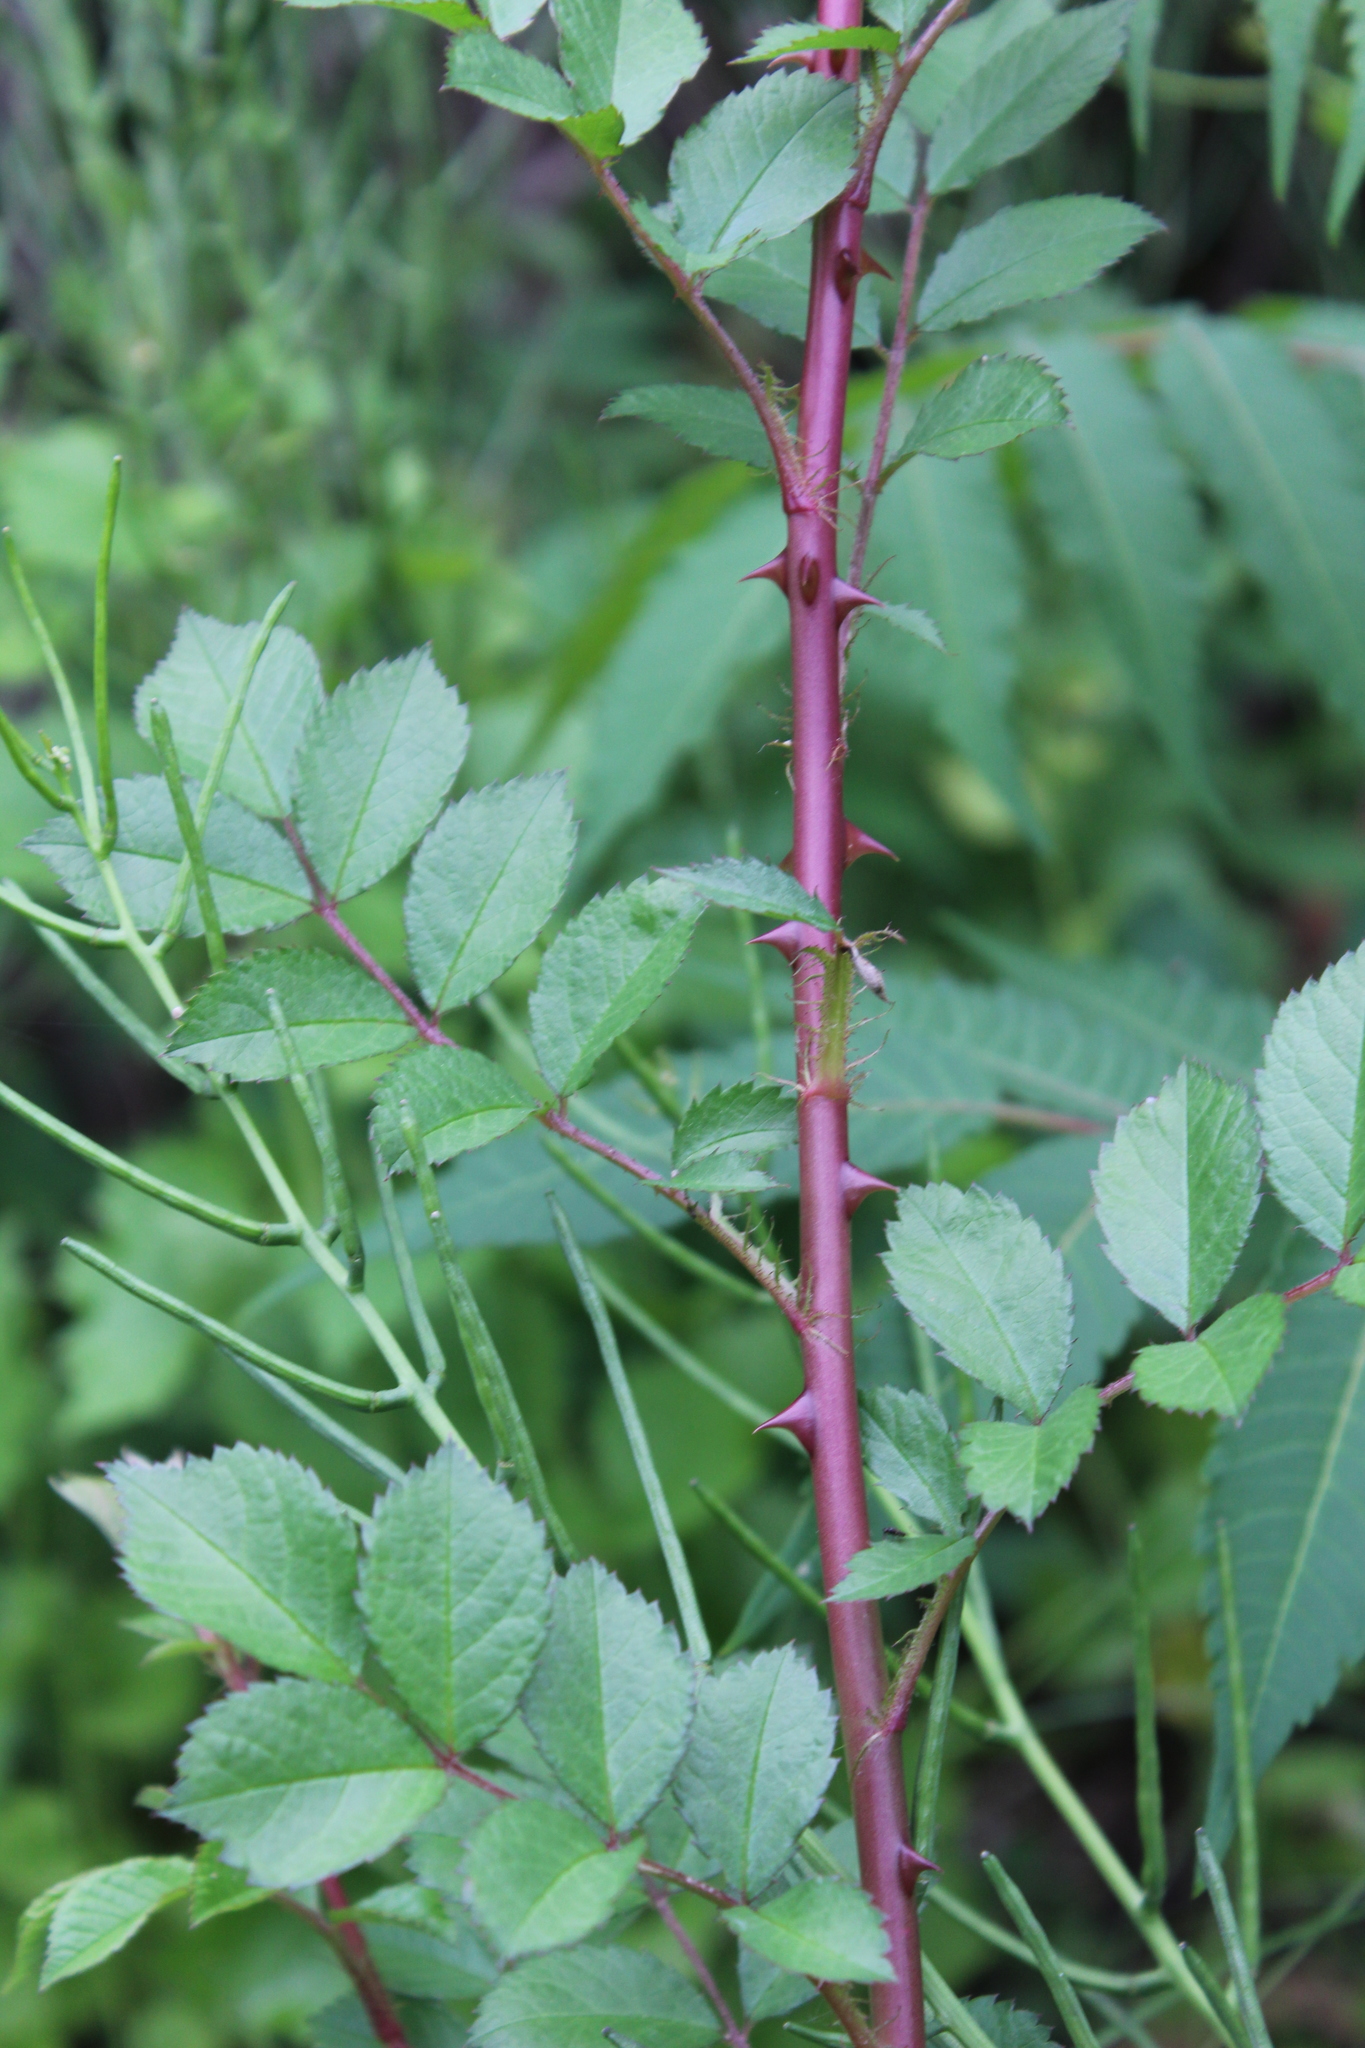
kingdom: Plantae
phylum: Tracheophyta
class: Magnoliopsida
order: Rosales
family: Rosaceae
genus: Rosa
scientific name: Rosa multiflora
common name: Multiflora rose
